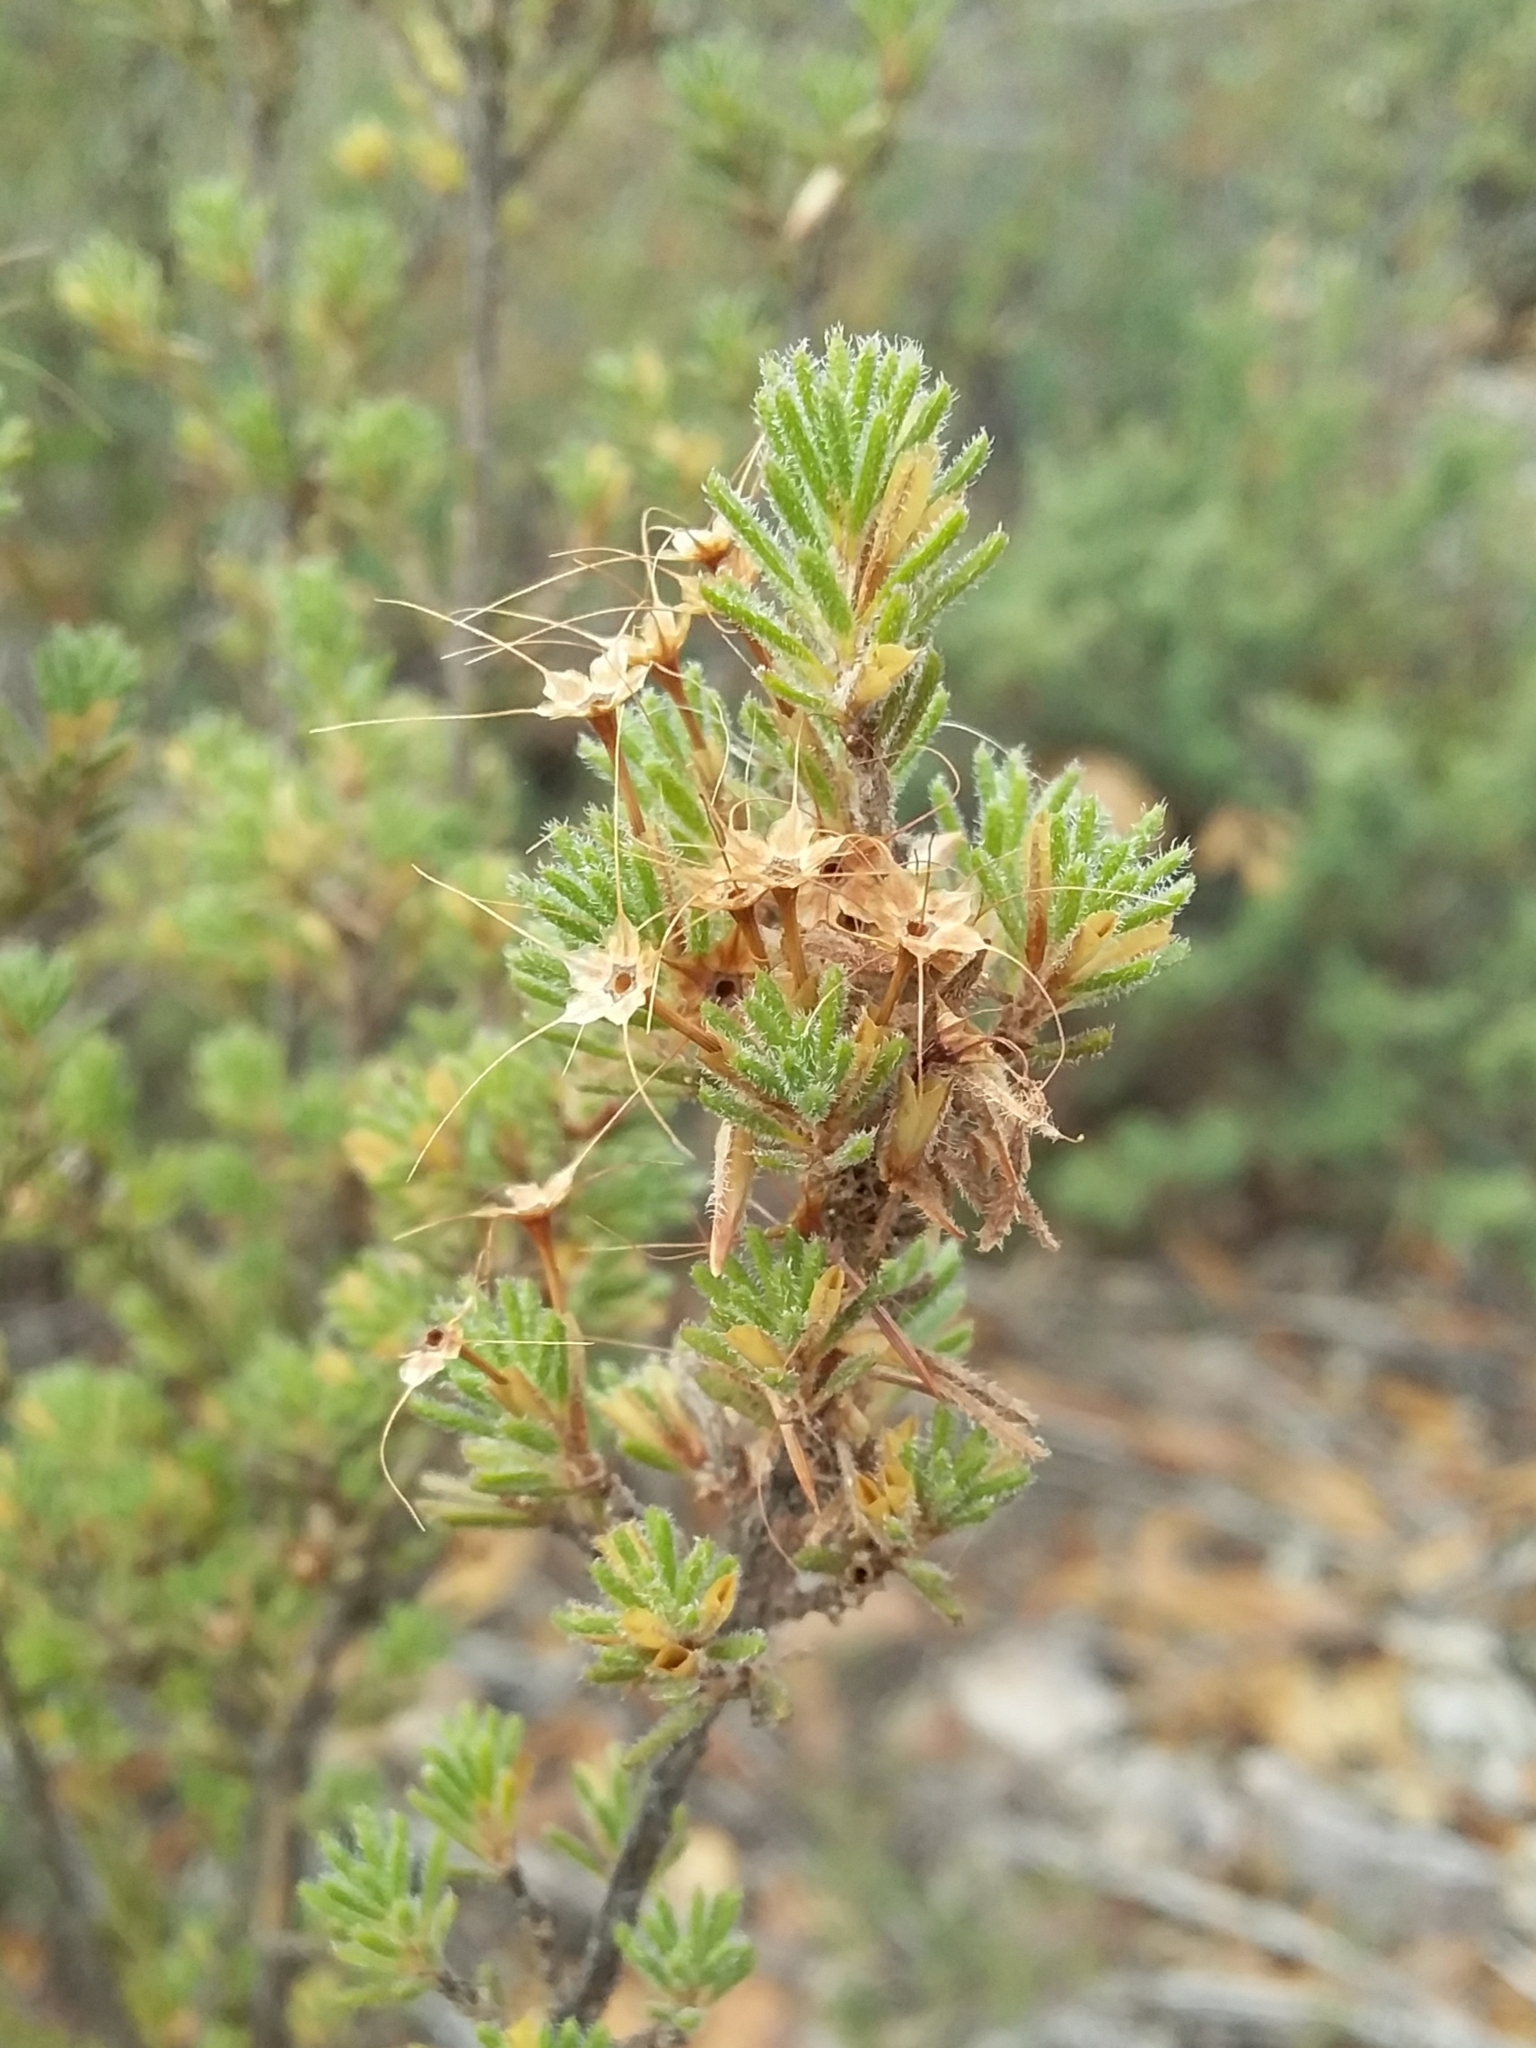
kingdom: Plantae
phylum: Tracheophyta
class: Magnoliopsida
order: Myrtales
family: Myrtaceae
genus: Calytrix
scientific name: Calytrix tetragona
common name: Common fringe myrtle
